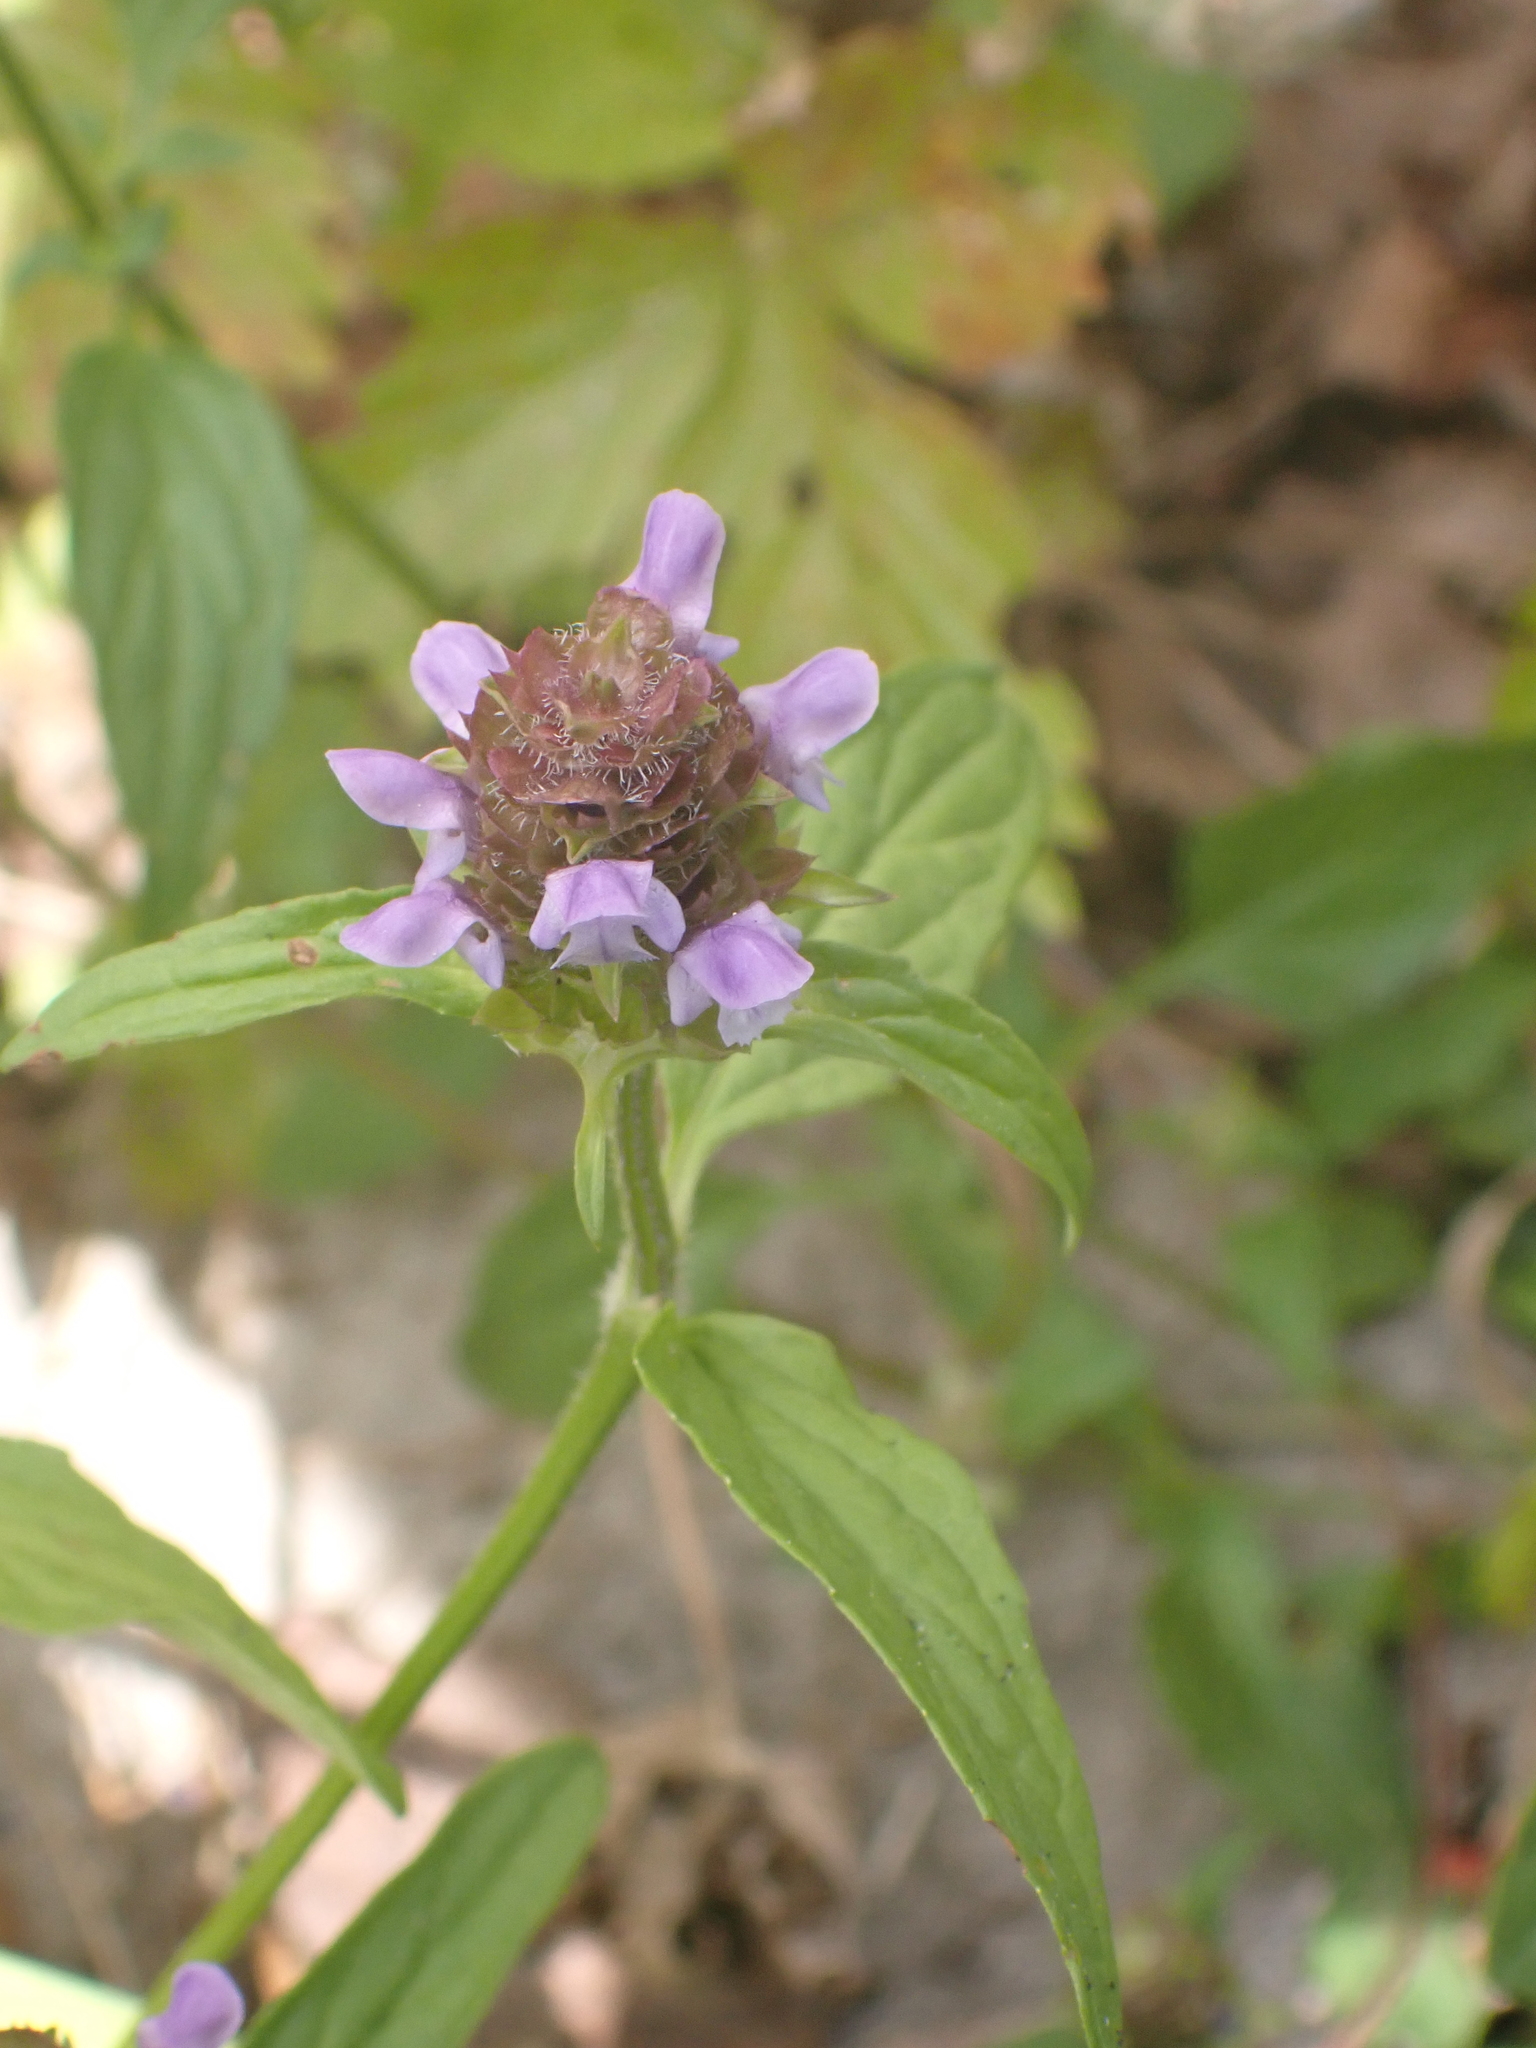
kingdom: Plantae
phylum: Tracheophyta
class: Magnoliopsida
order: Lamiales
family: Lamiaceae
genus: Prunella
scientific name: Prunella vulgaris
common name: Heal-all
